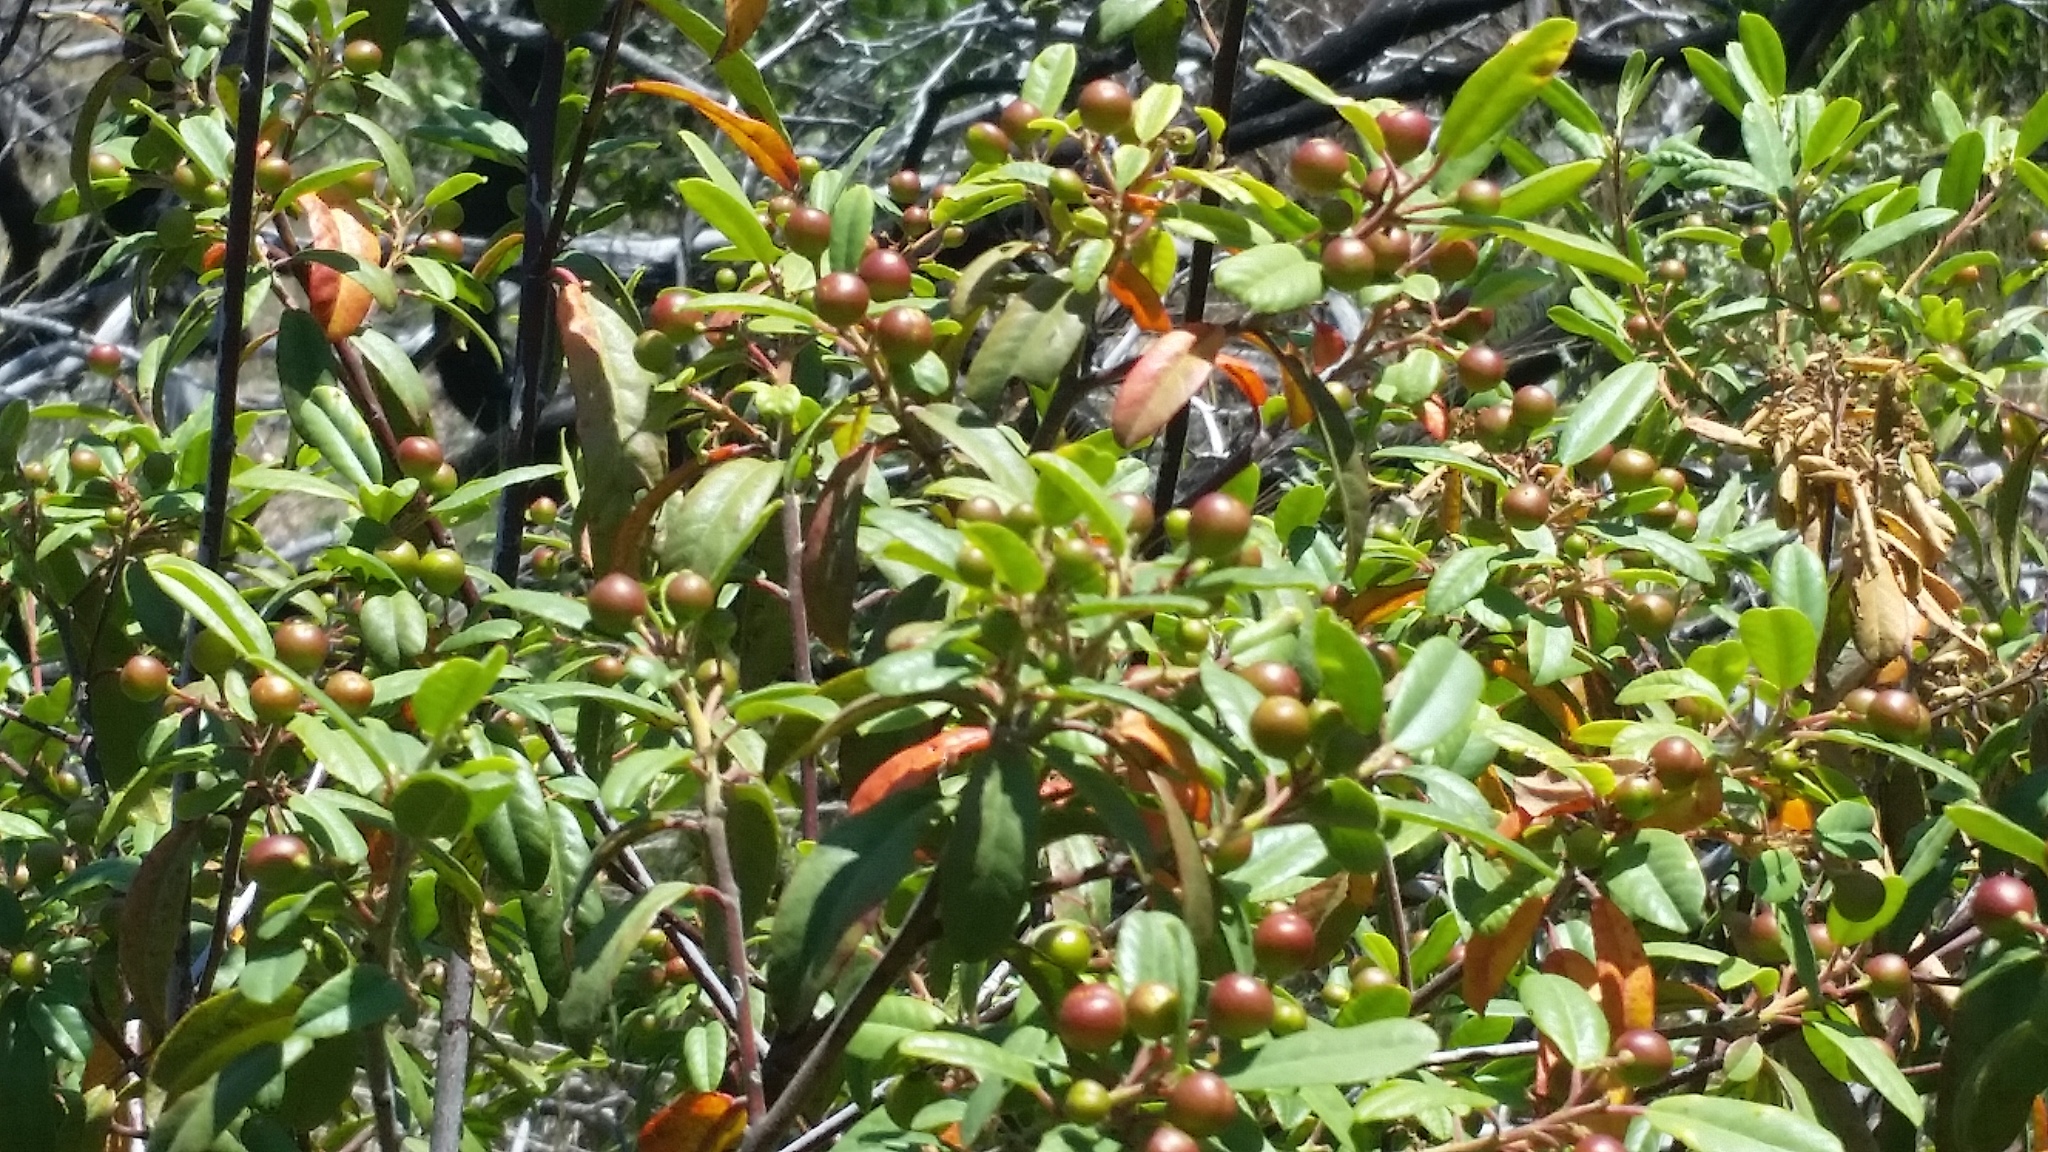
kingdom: Plantae
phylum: Tracheophyta
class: Magnoliopsida
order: Rosales
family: Rhamnaceae
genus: Frangula
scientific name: Frangula californica
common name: California buckthorn
